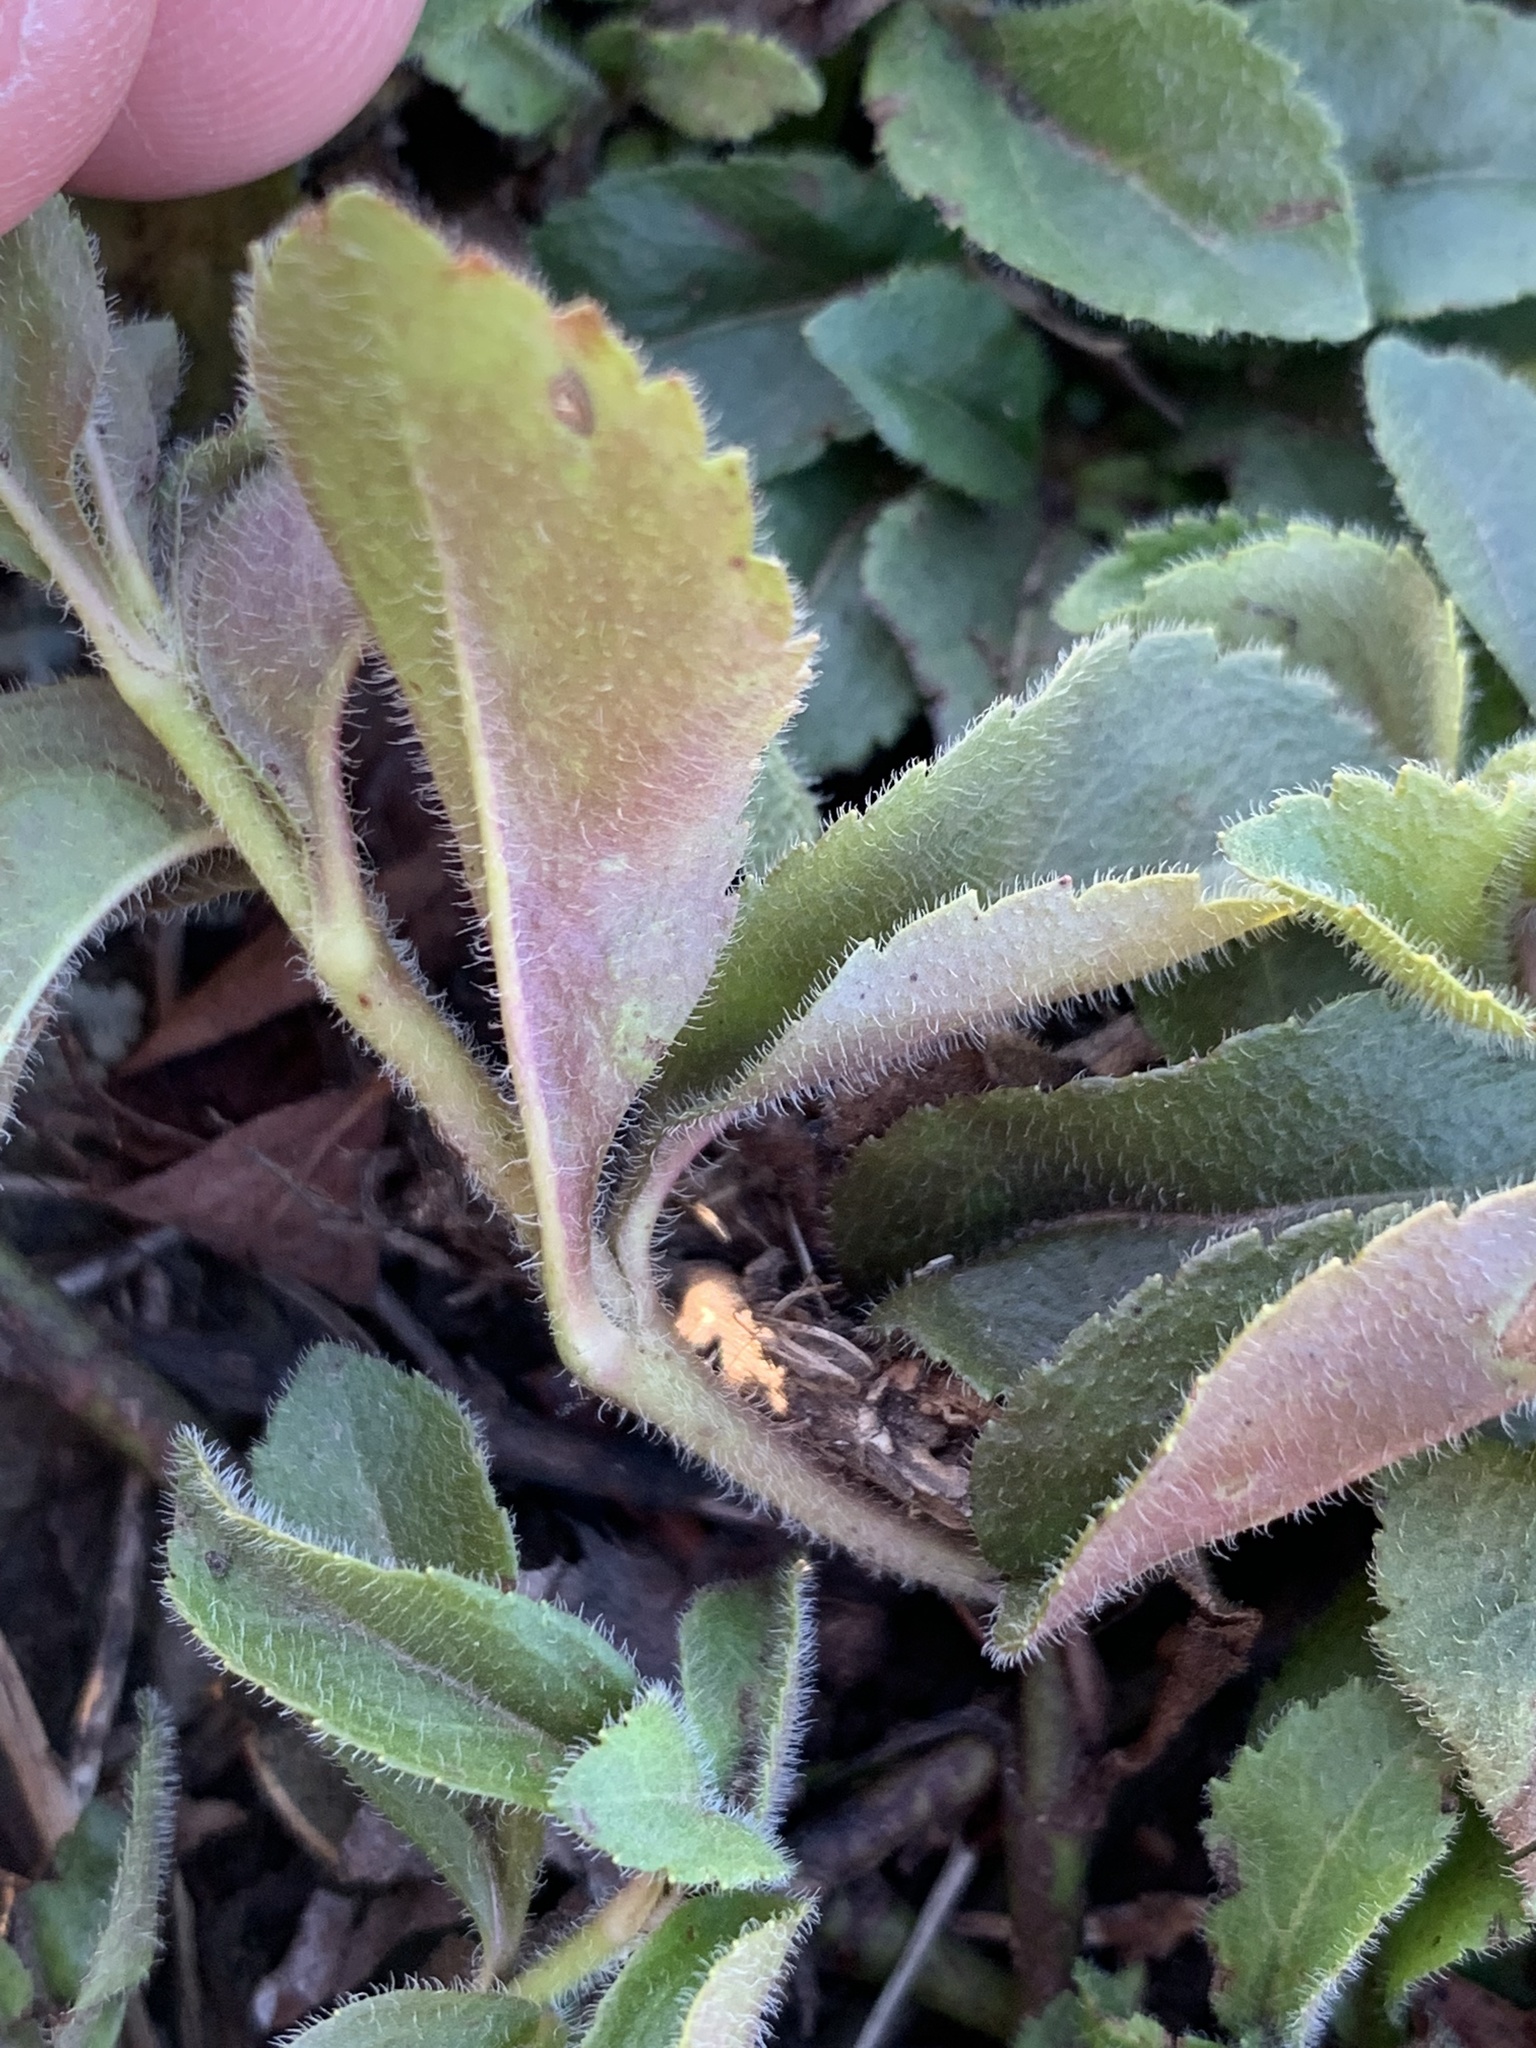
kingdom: Plantae
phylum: Tracheophyta
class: Magnoliopsida
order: Lamiales
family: Plantaginaceae
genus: Veronica
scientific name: Veronica officinalis
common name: Common speedwell
